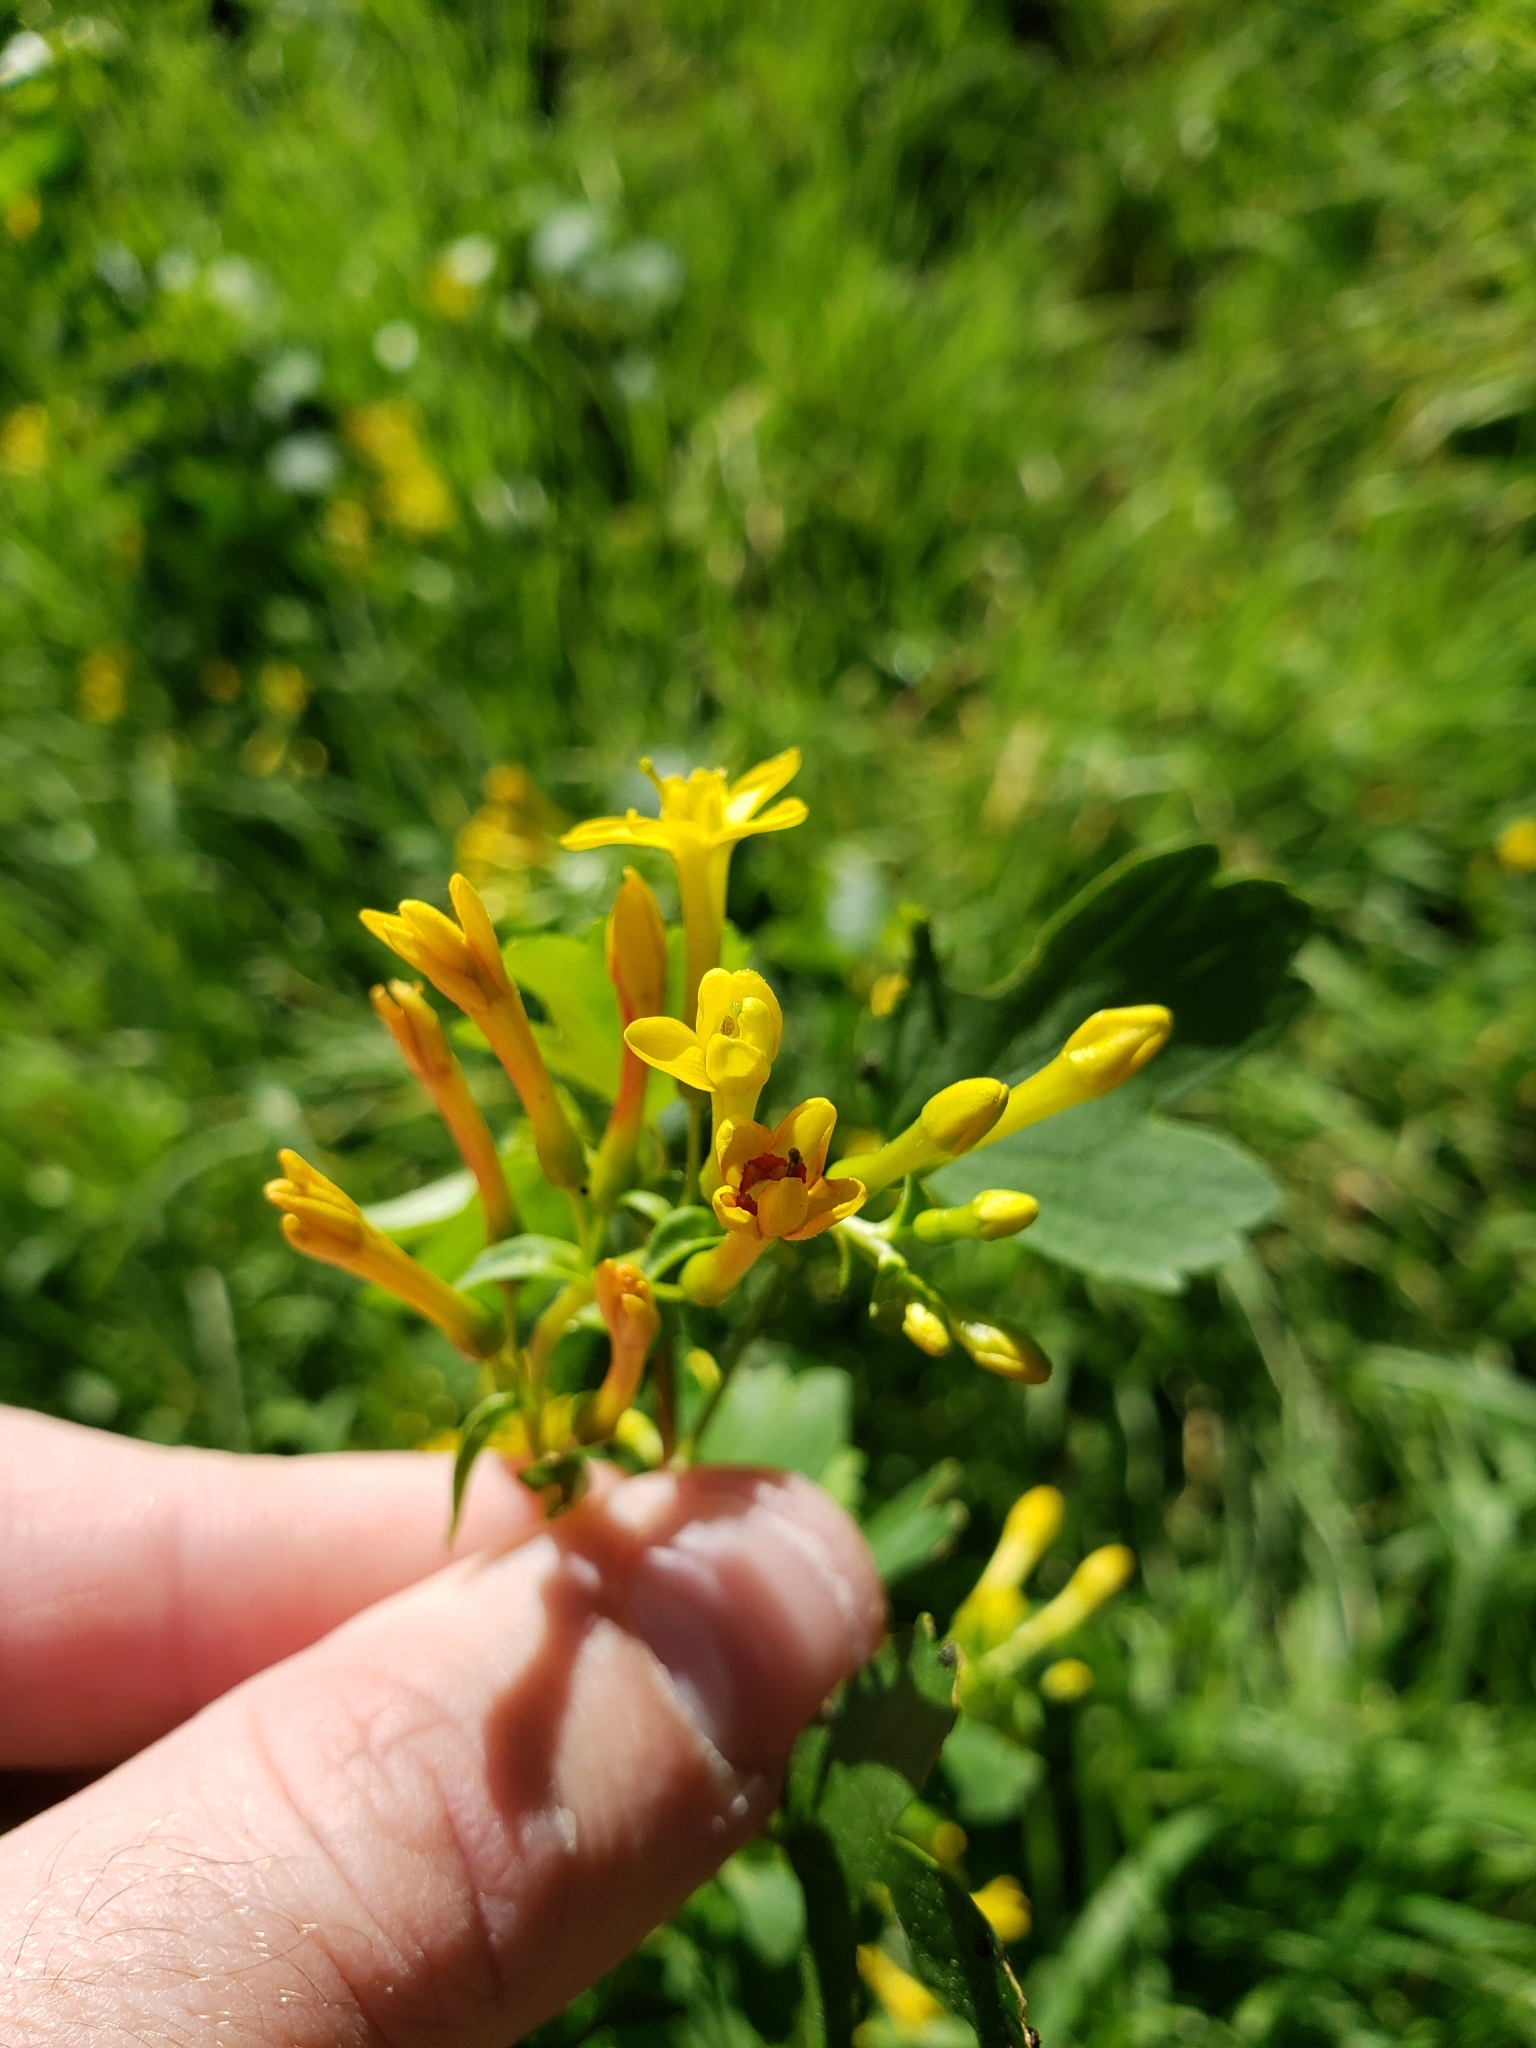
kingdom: Plantae
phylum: Tracheophyta
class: Magnoliopsida
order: Saxifragales
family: Grossulariaceae
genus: Ribes
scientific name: Ribes aureum
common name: Golden currant
